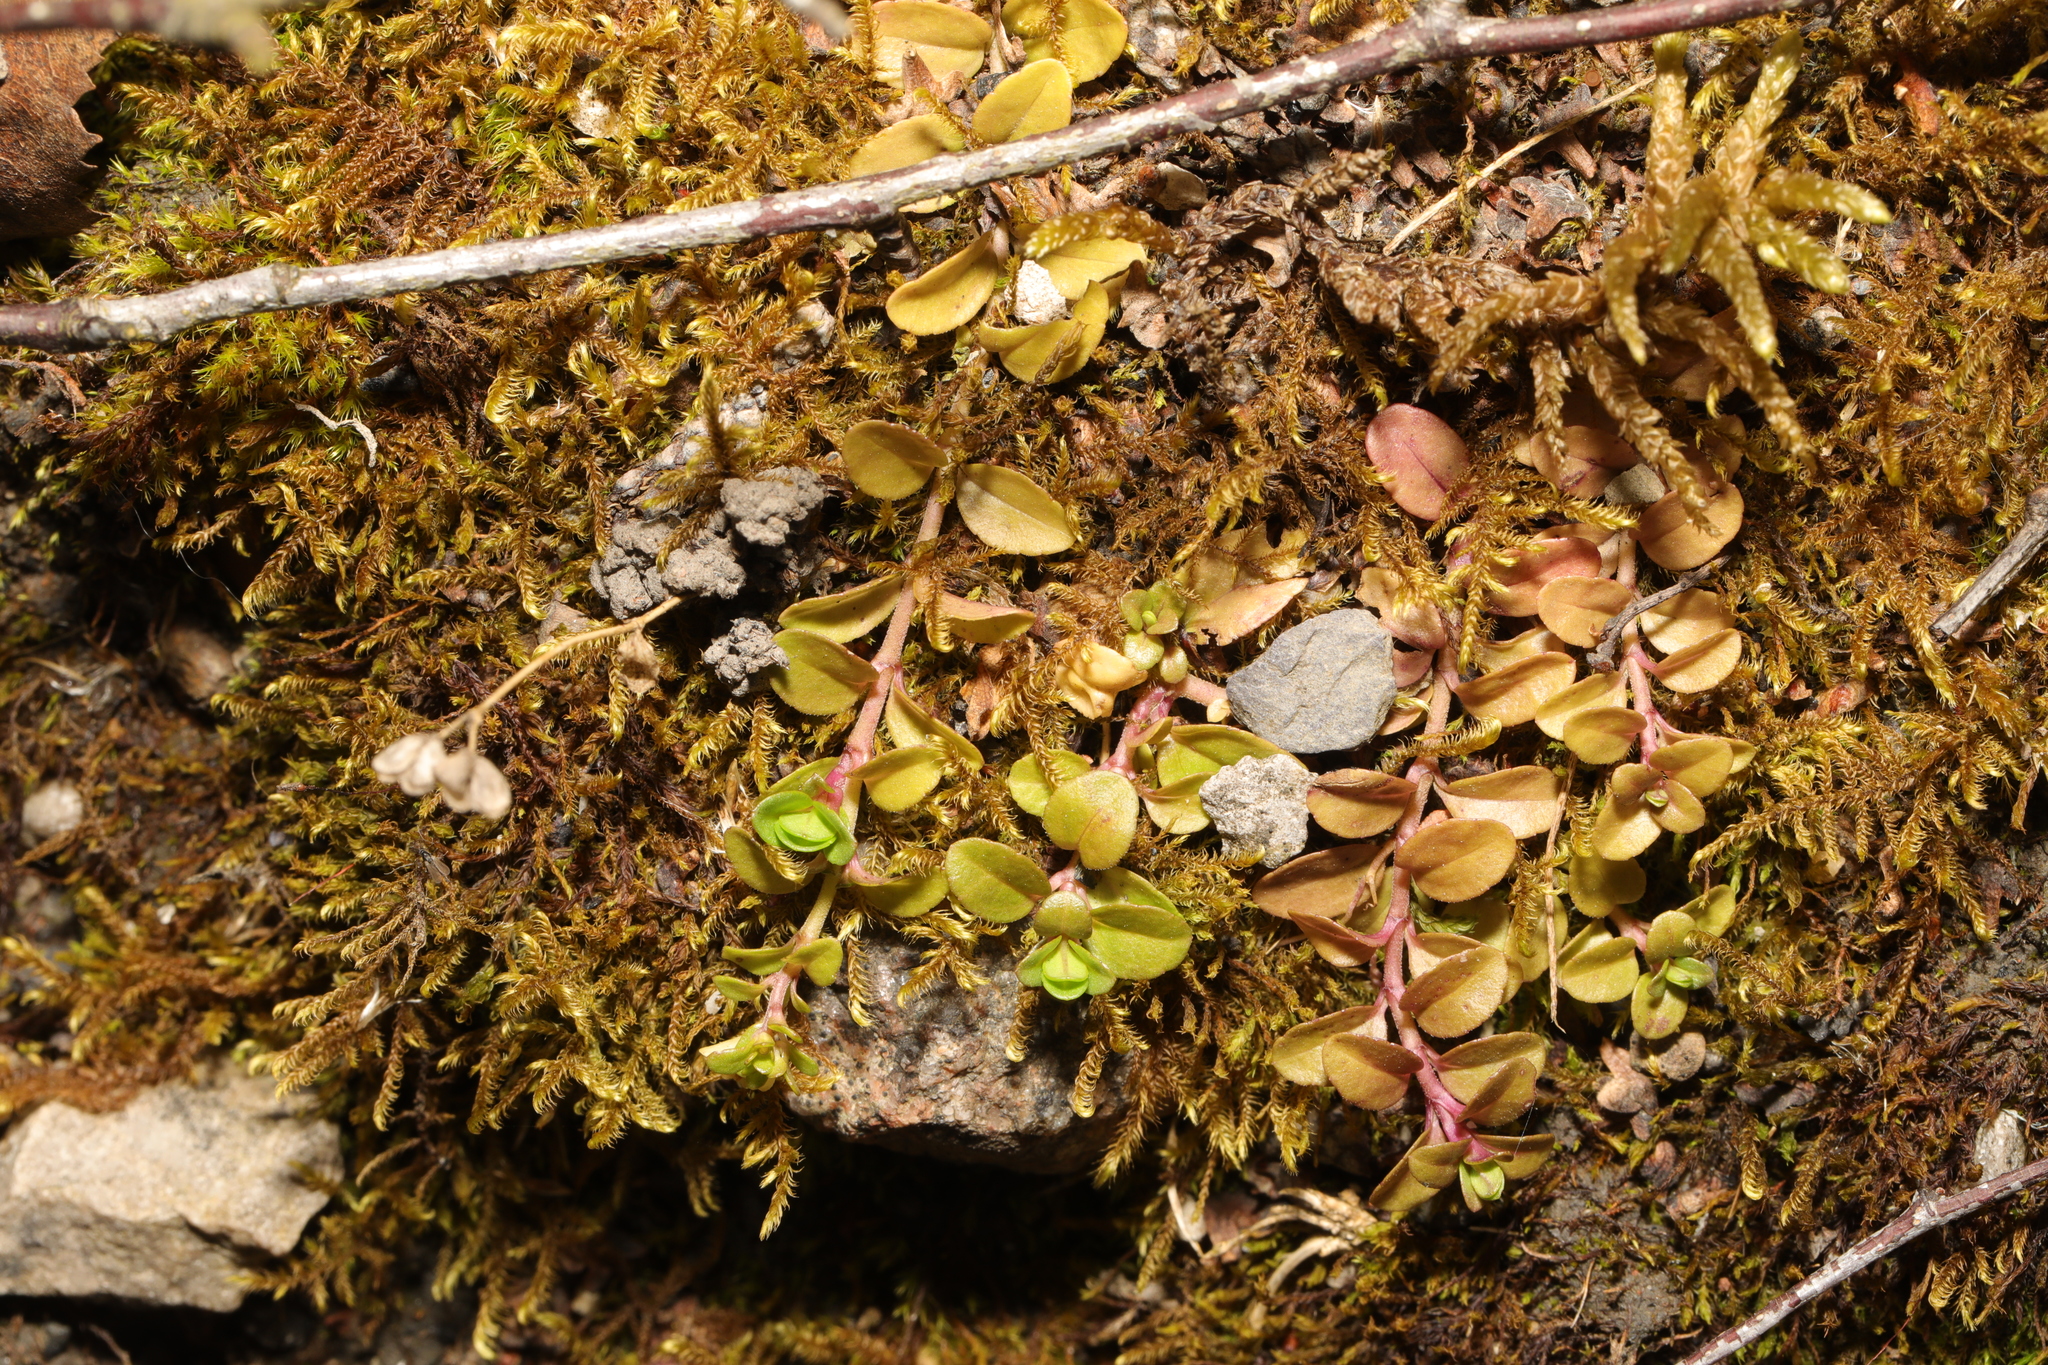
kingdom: Plantae
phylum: Tracheophyta
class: Magnoliopsida
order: Lamiales
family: Plantaginaceae
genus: Veronica
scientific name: Veronica serpyllifolia
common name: Thyme-leaved speedwell
